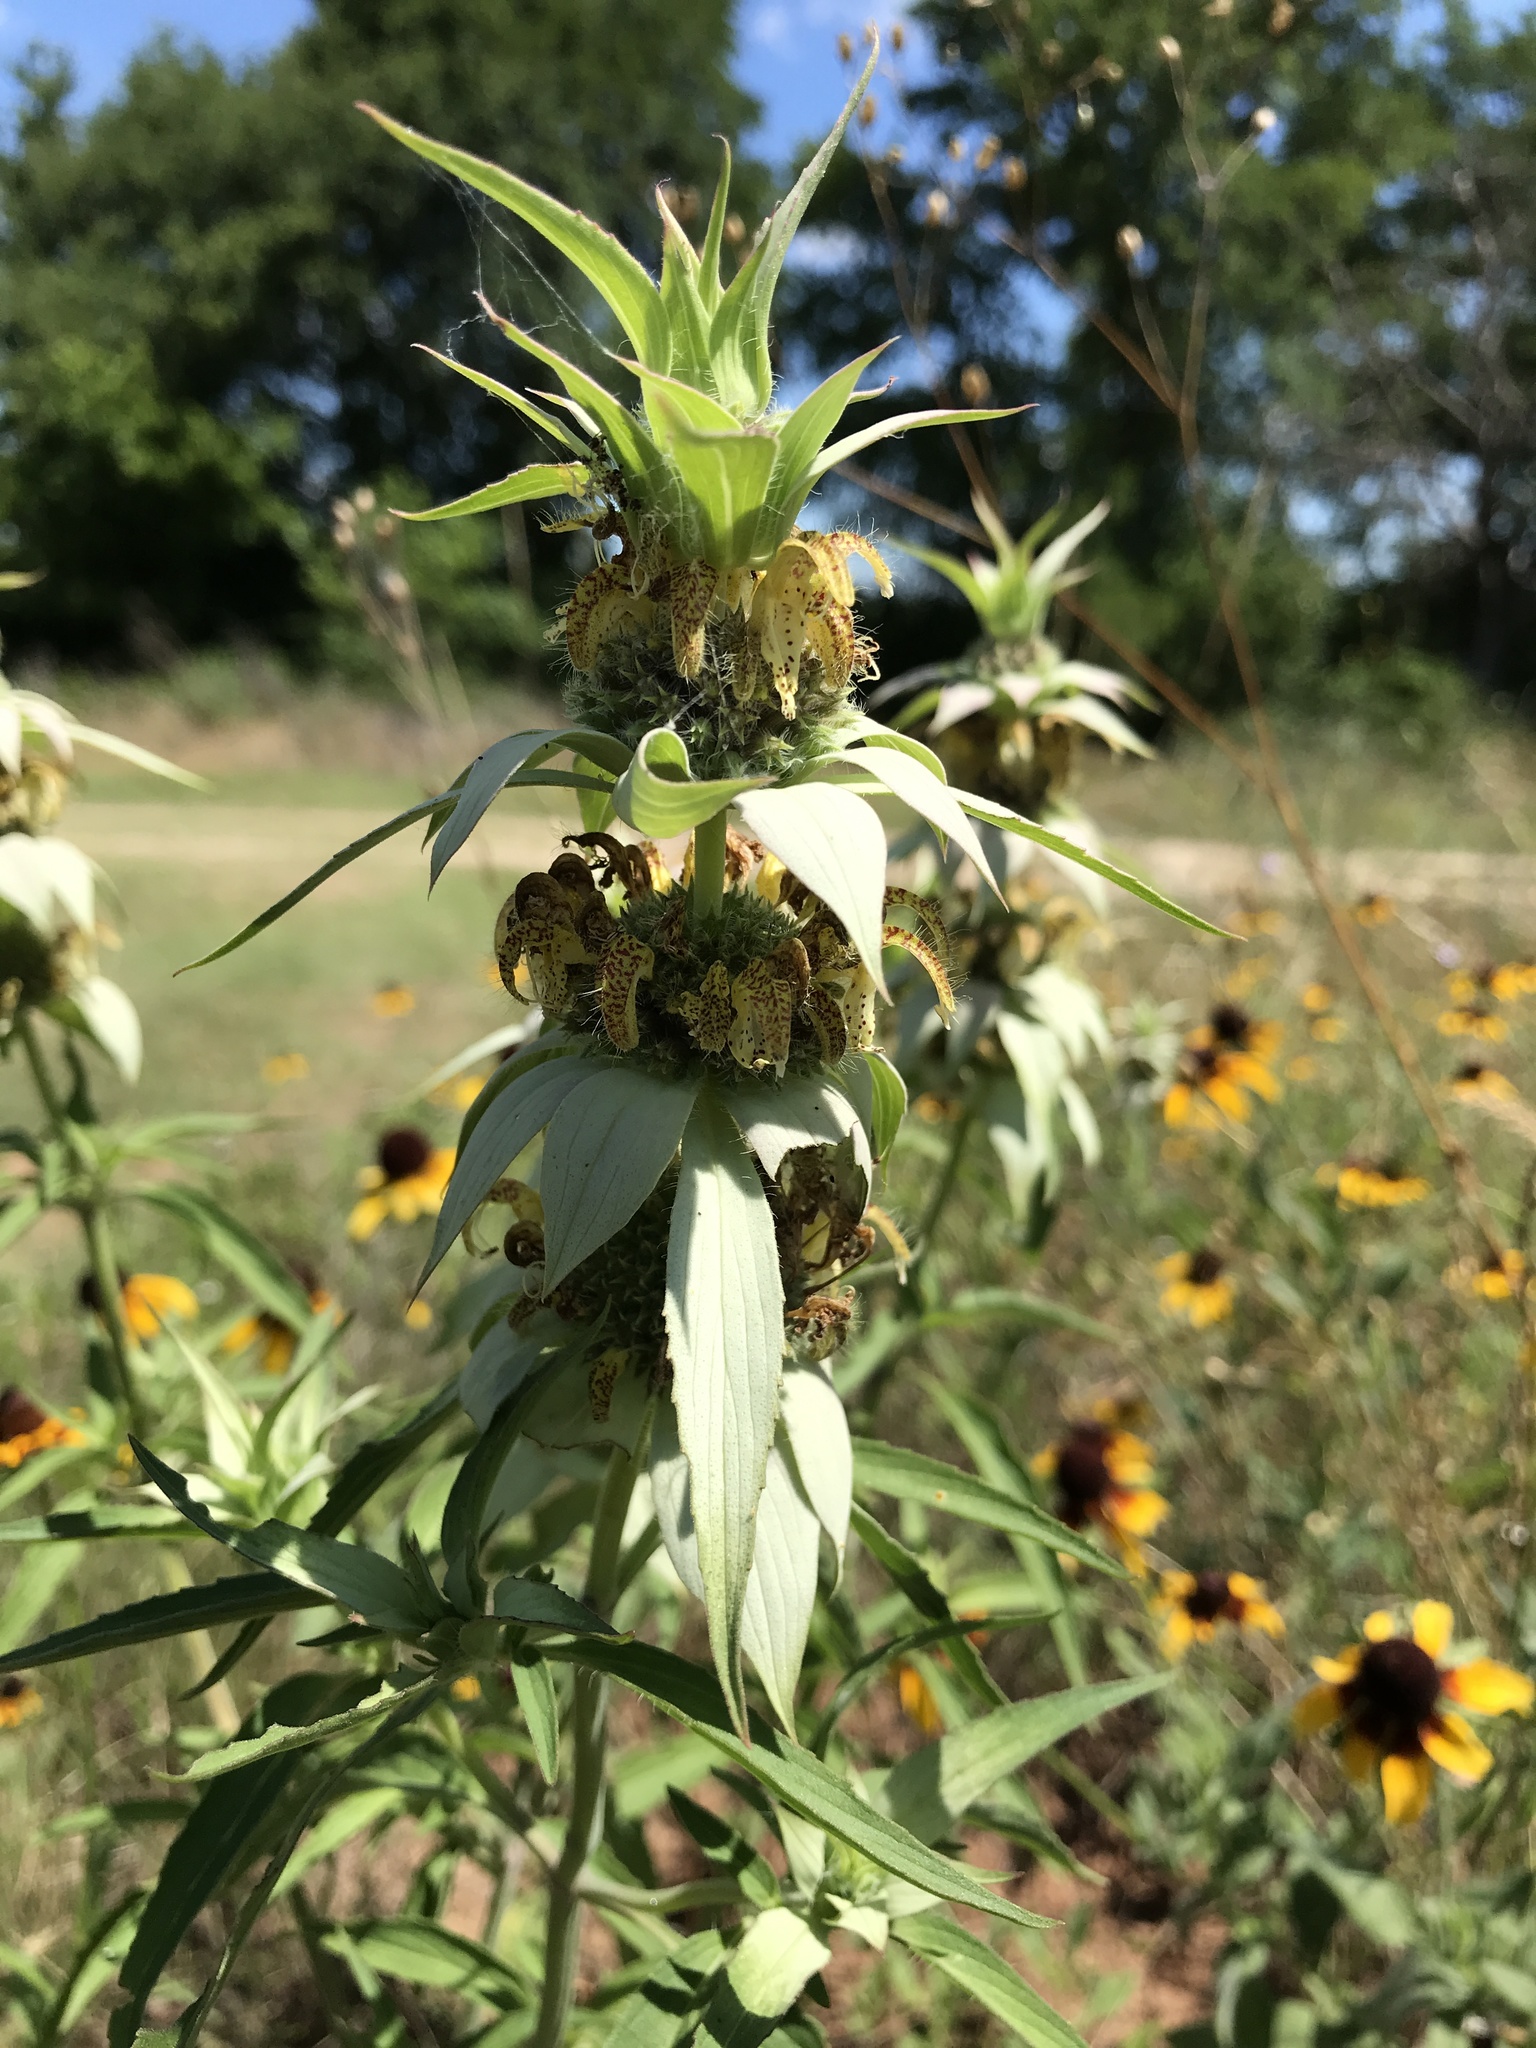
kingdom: Plantae
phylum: Tracheophyta
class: Magnoliopsida
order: Lamiales
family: Lamiaceae
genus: Monarda
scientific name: Monarda punctata
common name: Dotted monarda
